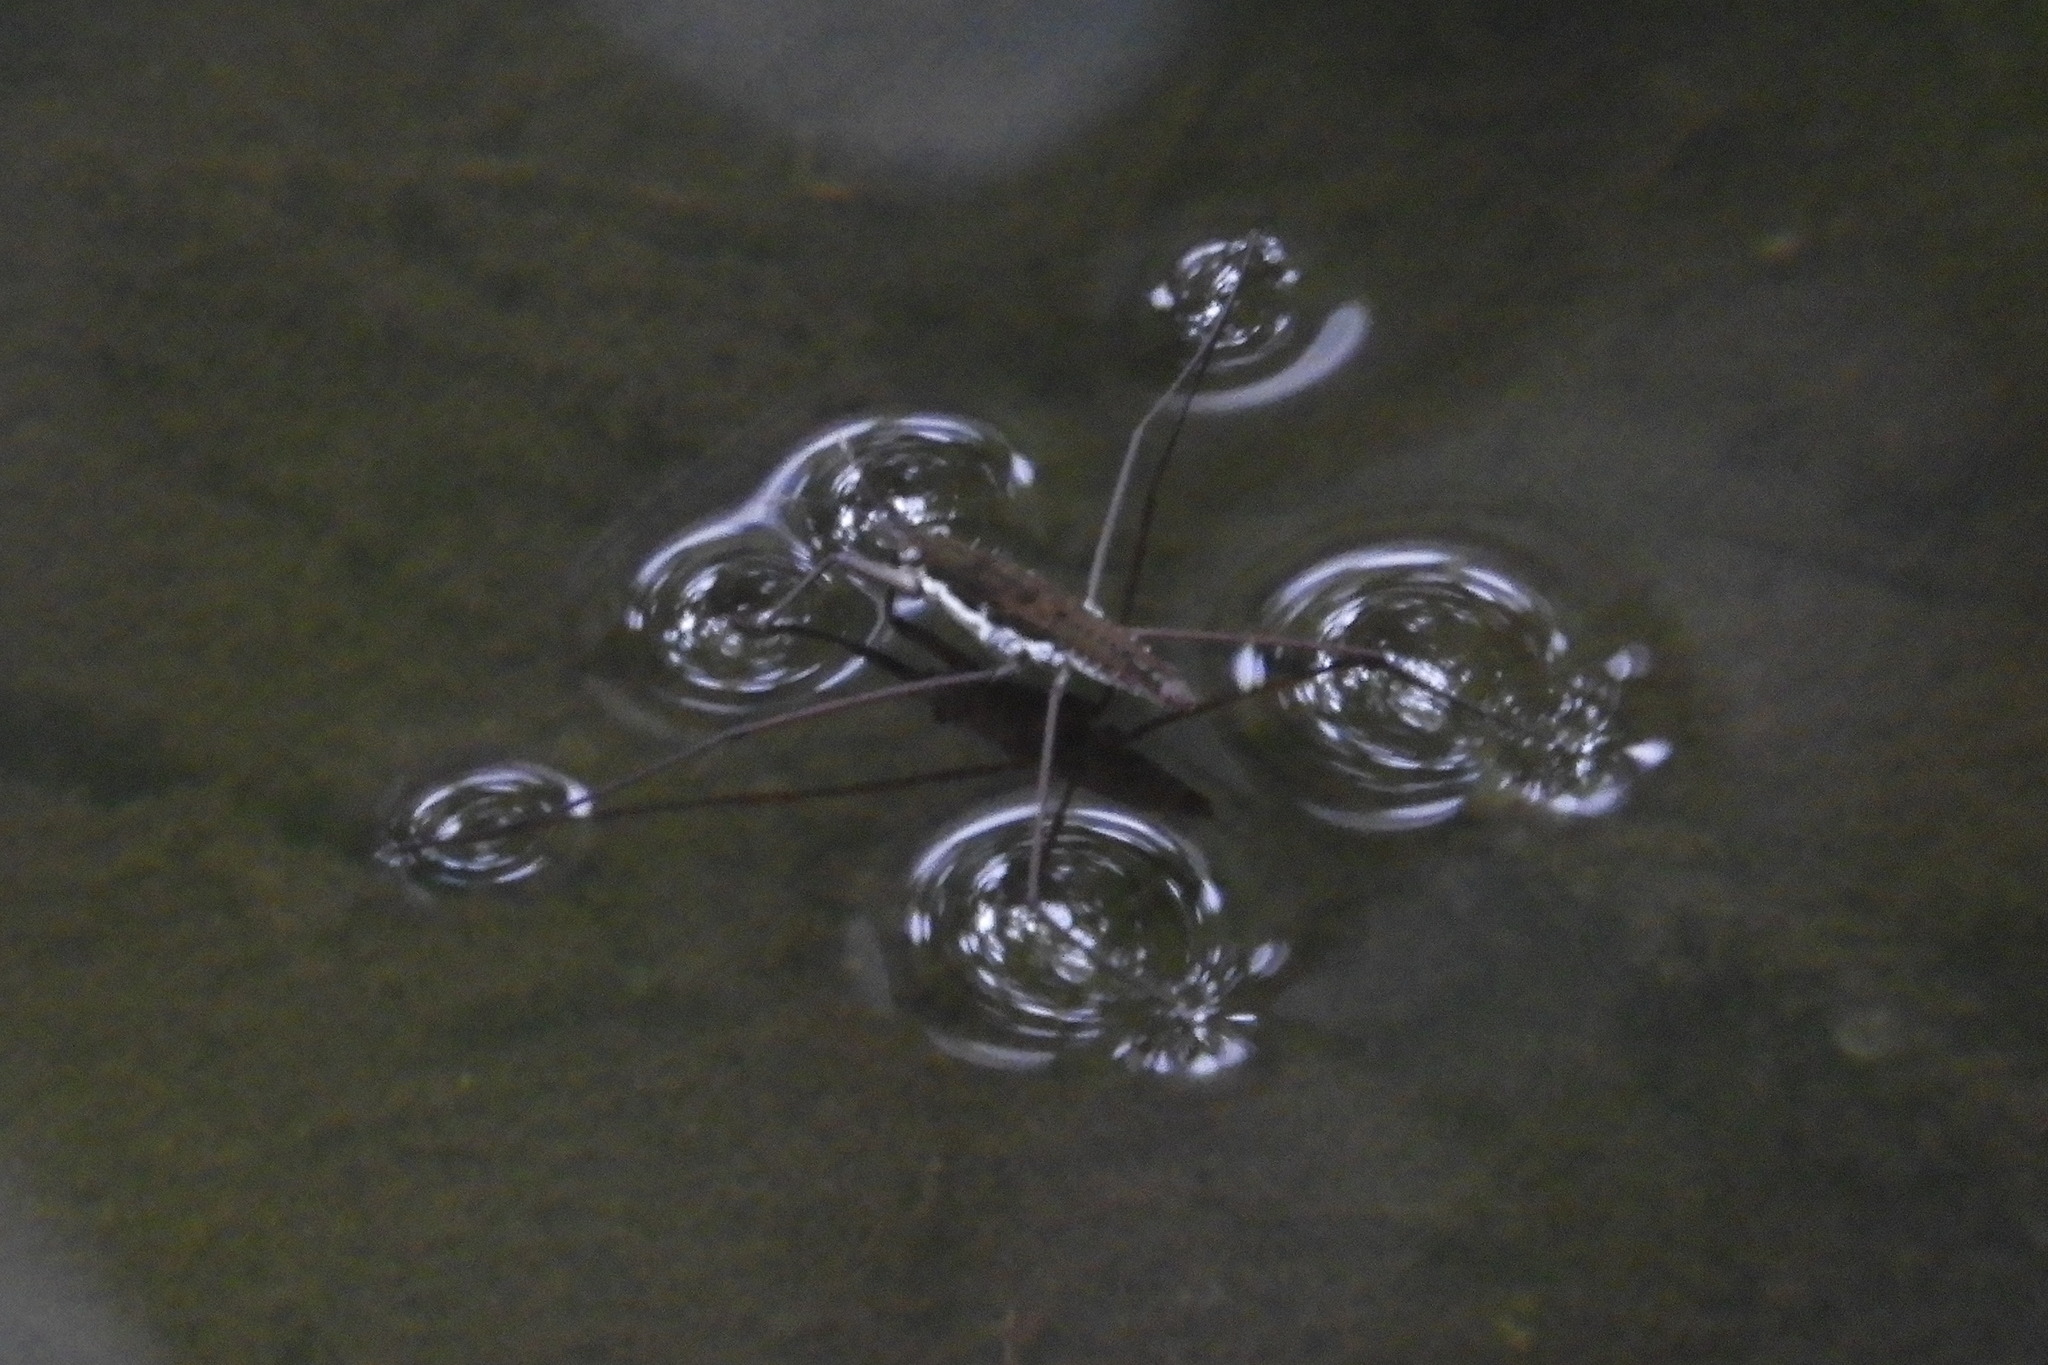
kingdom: Animalia
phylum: Arthropoda
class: Insecta
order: Hemiptera
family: Gerridae
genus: Aquarius
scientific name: Aquarius
